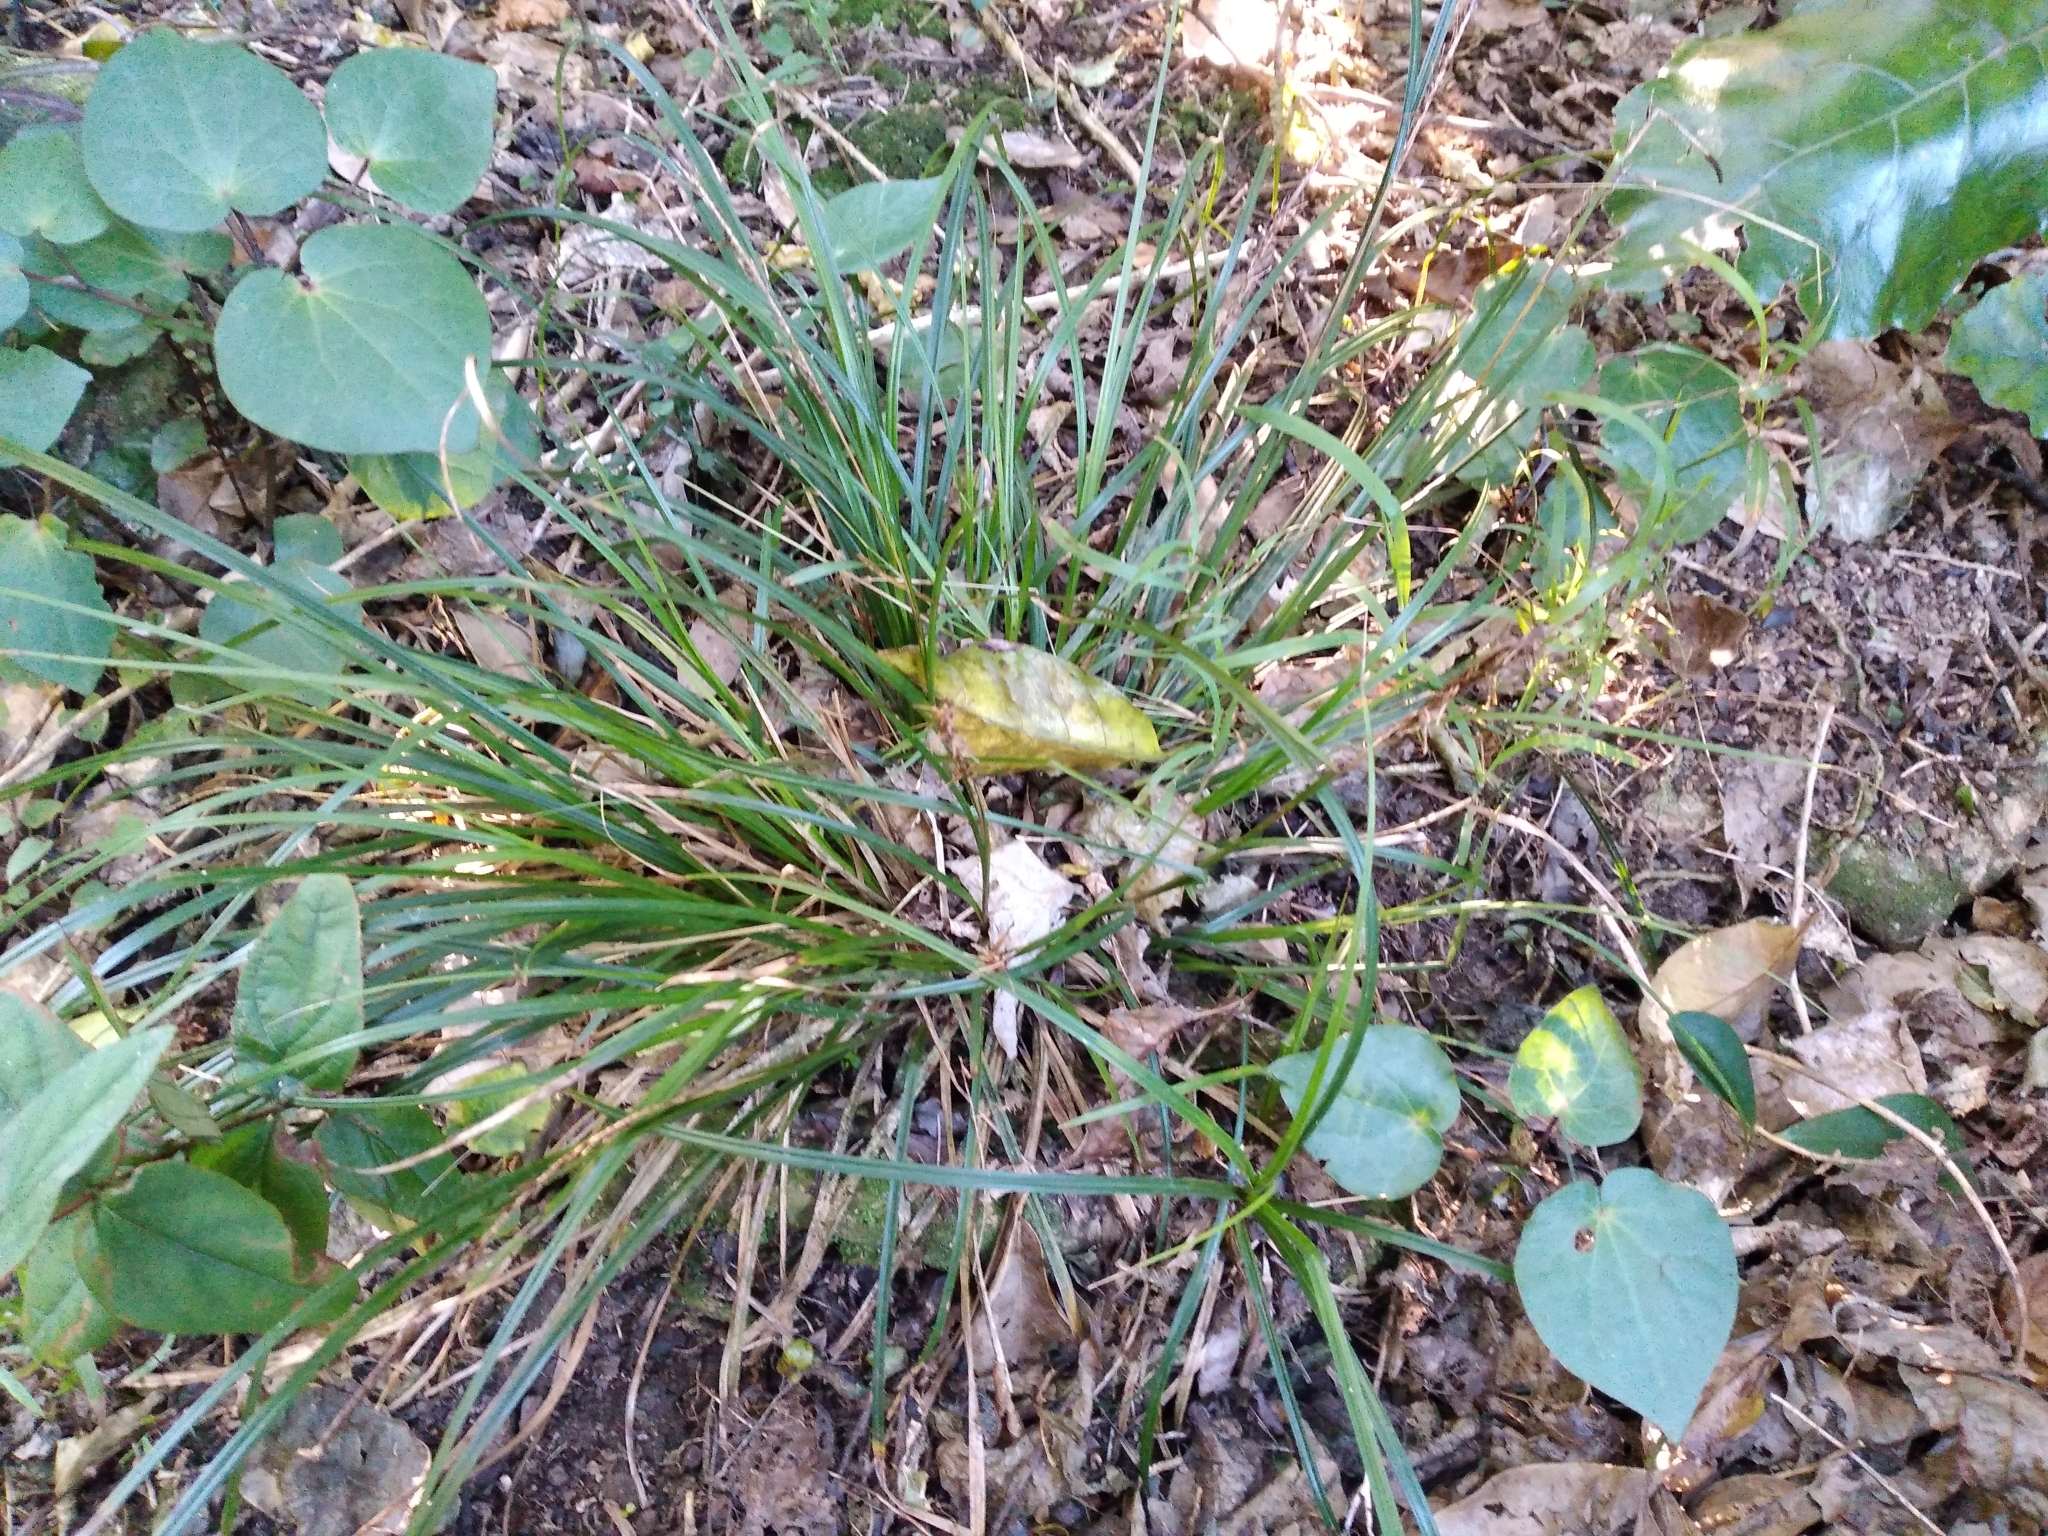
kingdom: Plantae
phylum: Tracheophyta
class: Liliopsida
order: Poales
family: Cyperaceae
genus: Carex
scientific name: Carex uncinata
